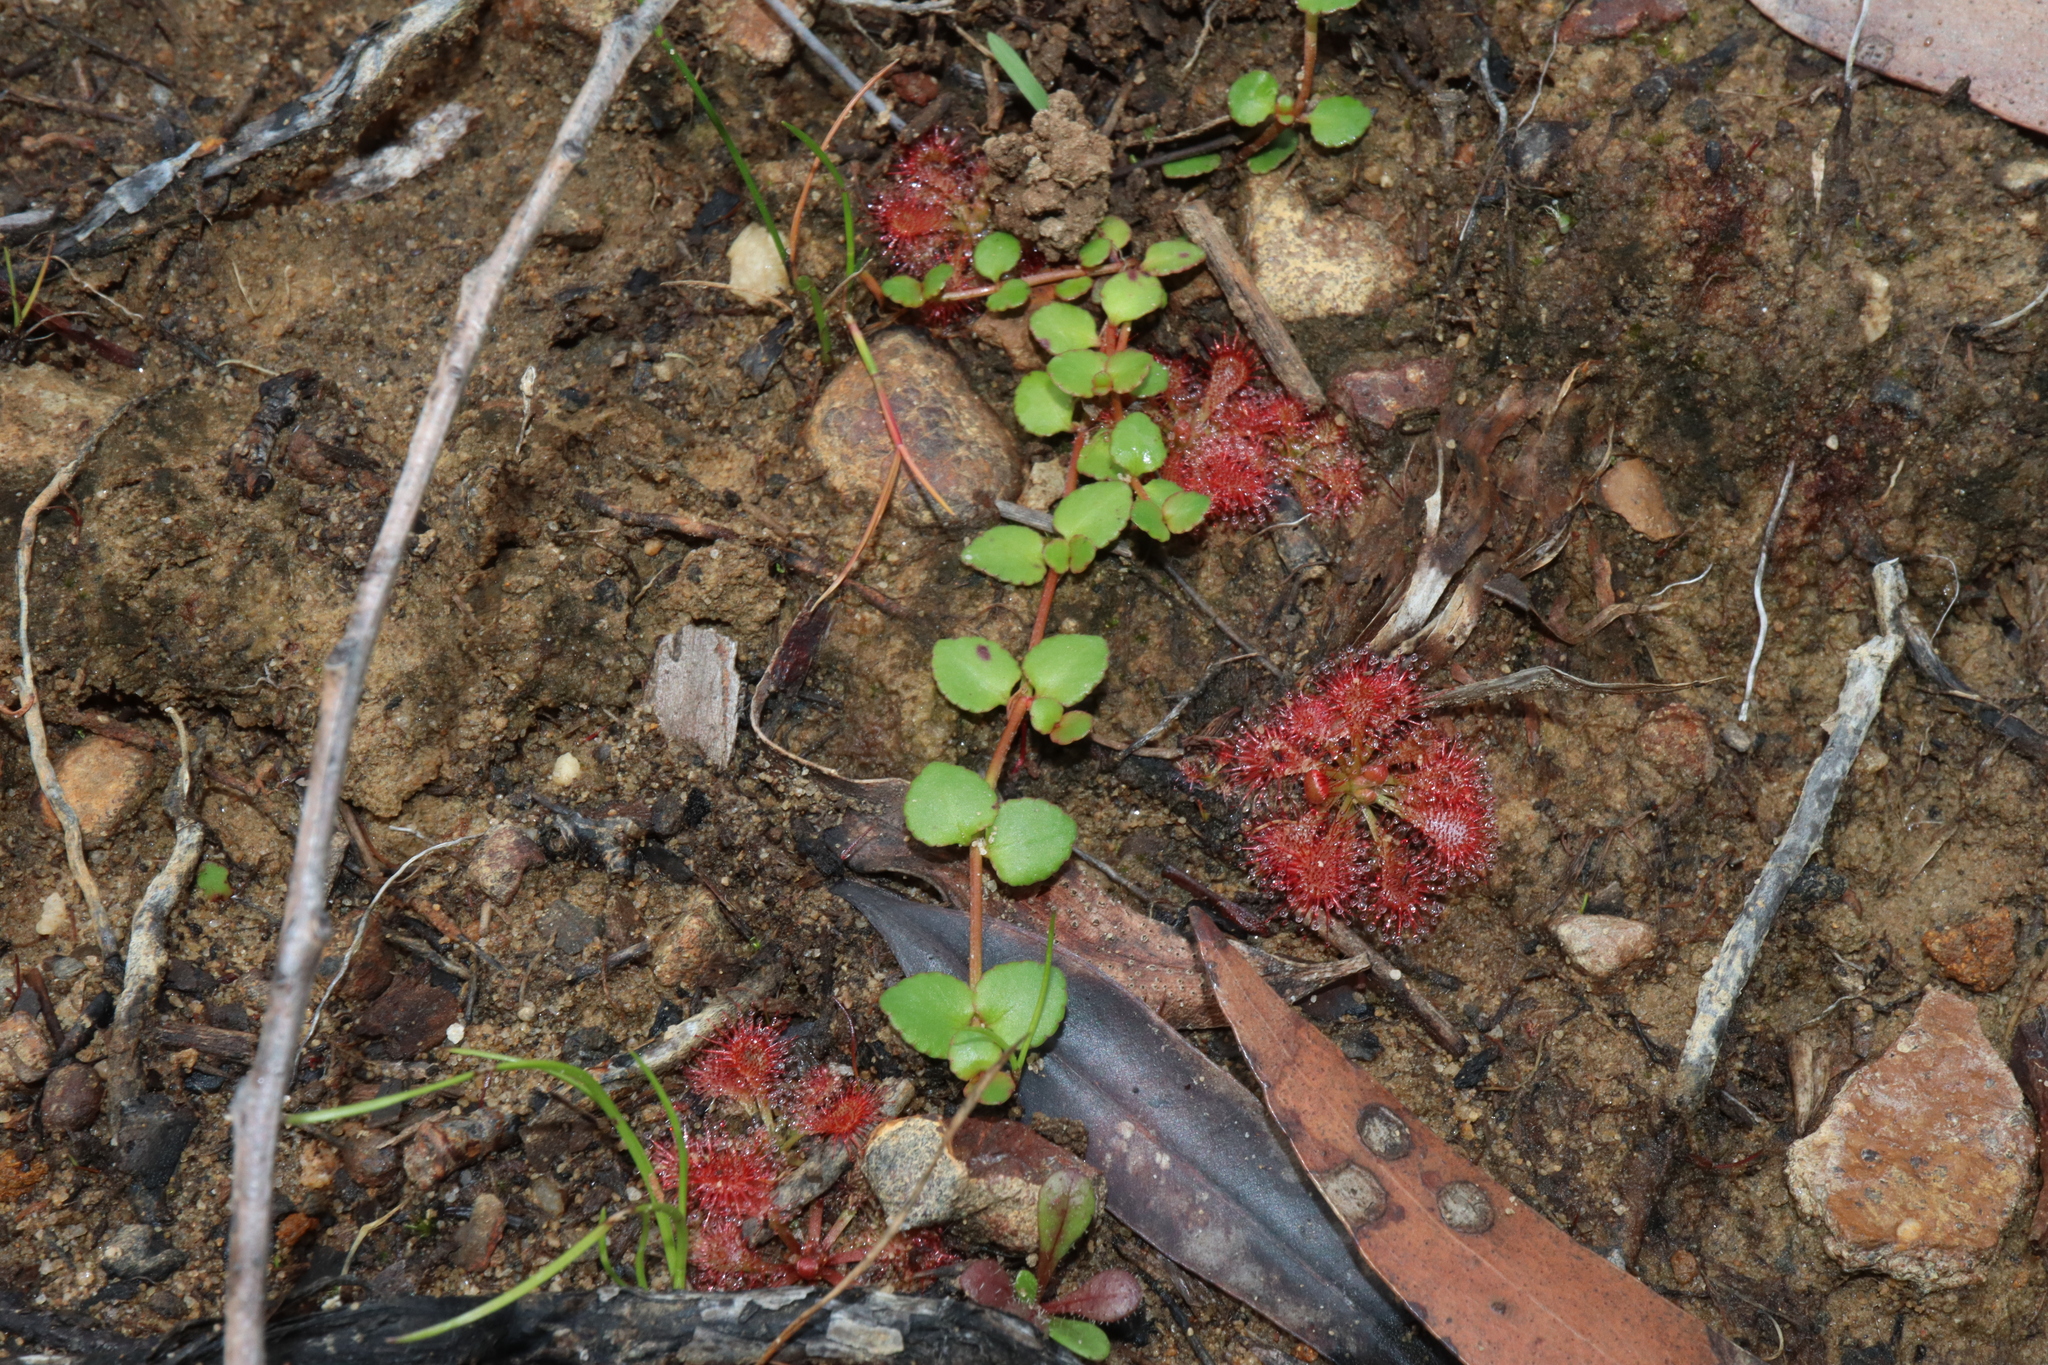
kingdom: Plantae
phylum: Tracheophyta
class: Magnoliopsida
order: Saxifragales
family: Haloragaceae
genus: Gonocarpus
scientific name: Gonocarpus micranthus
